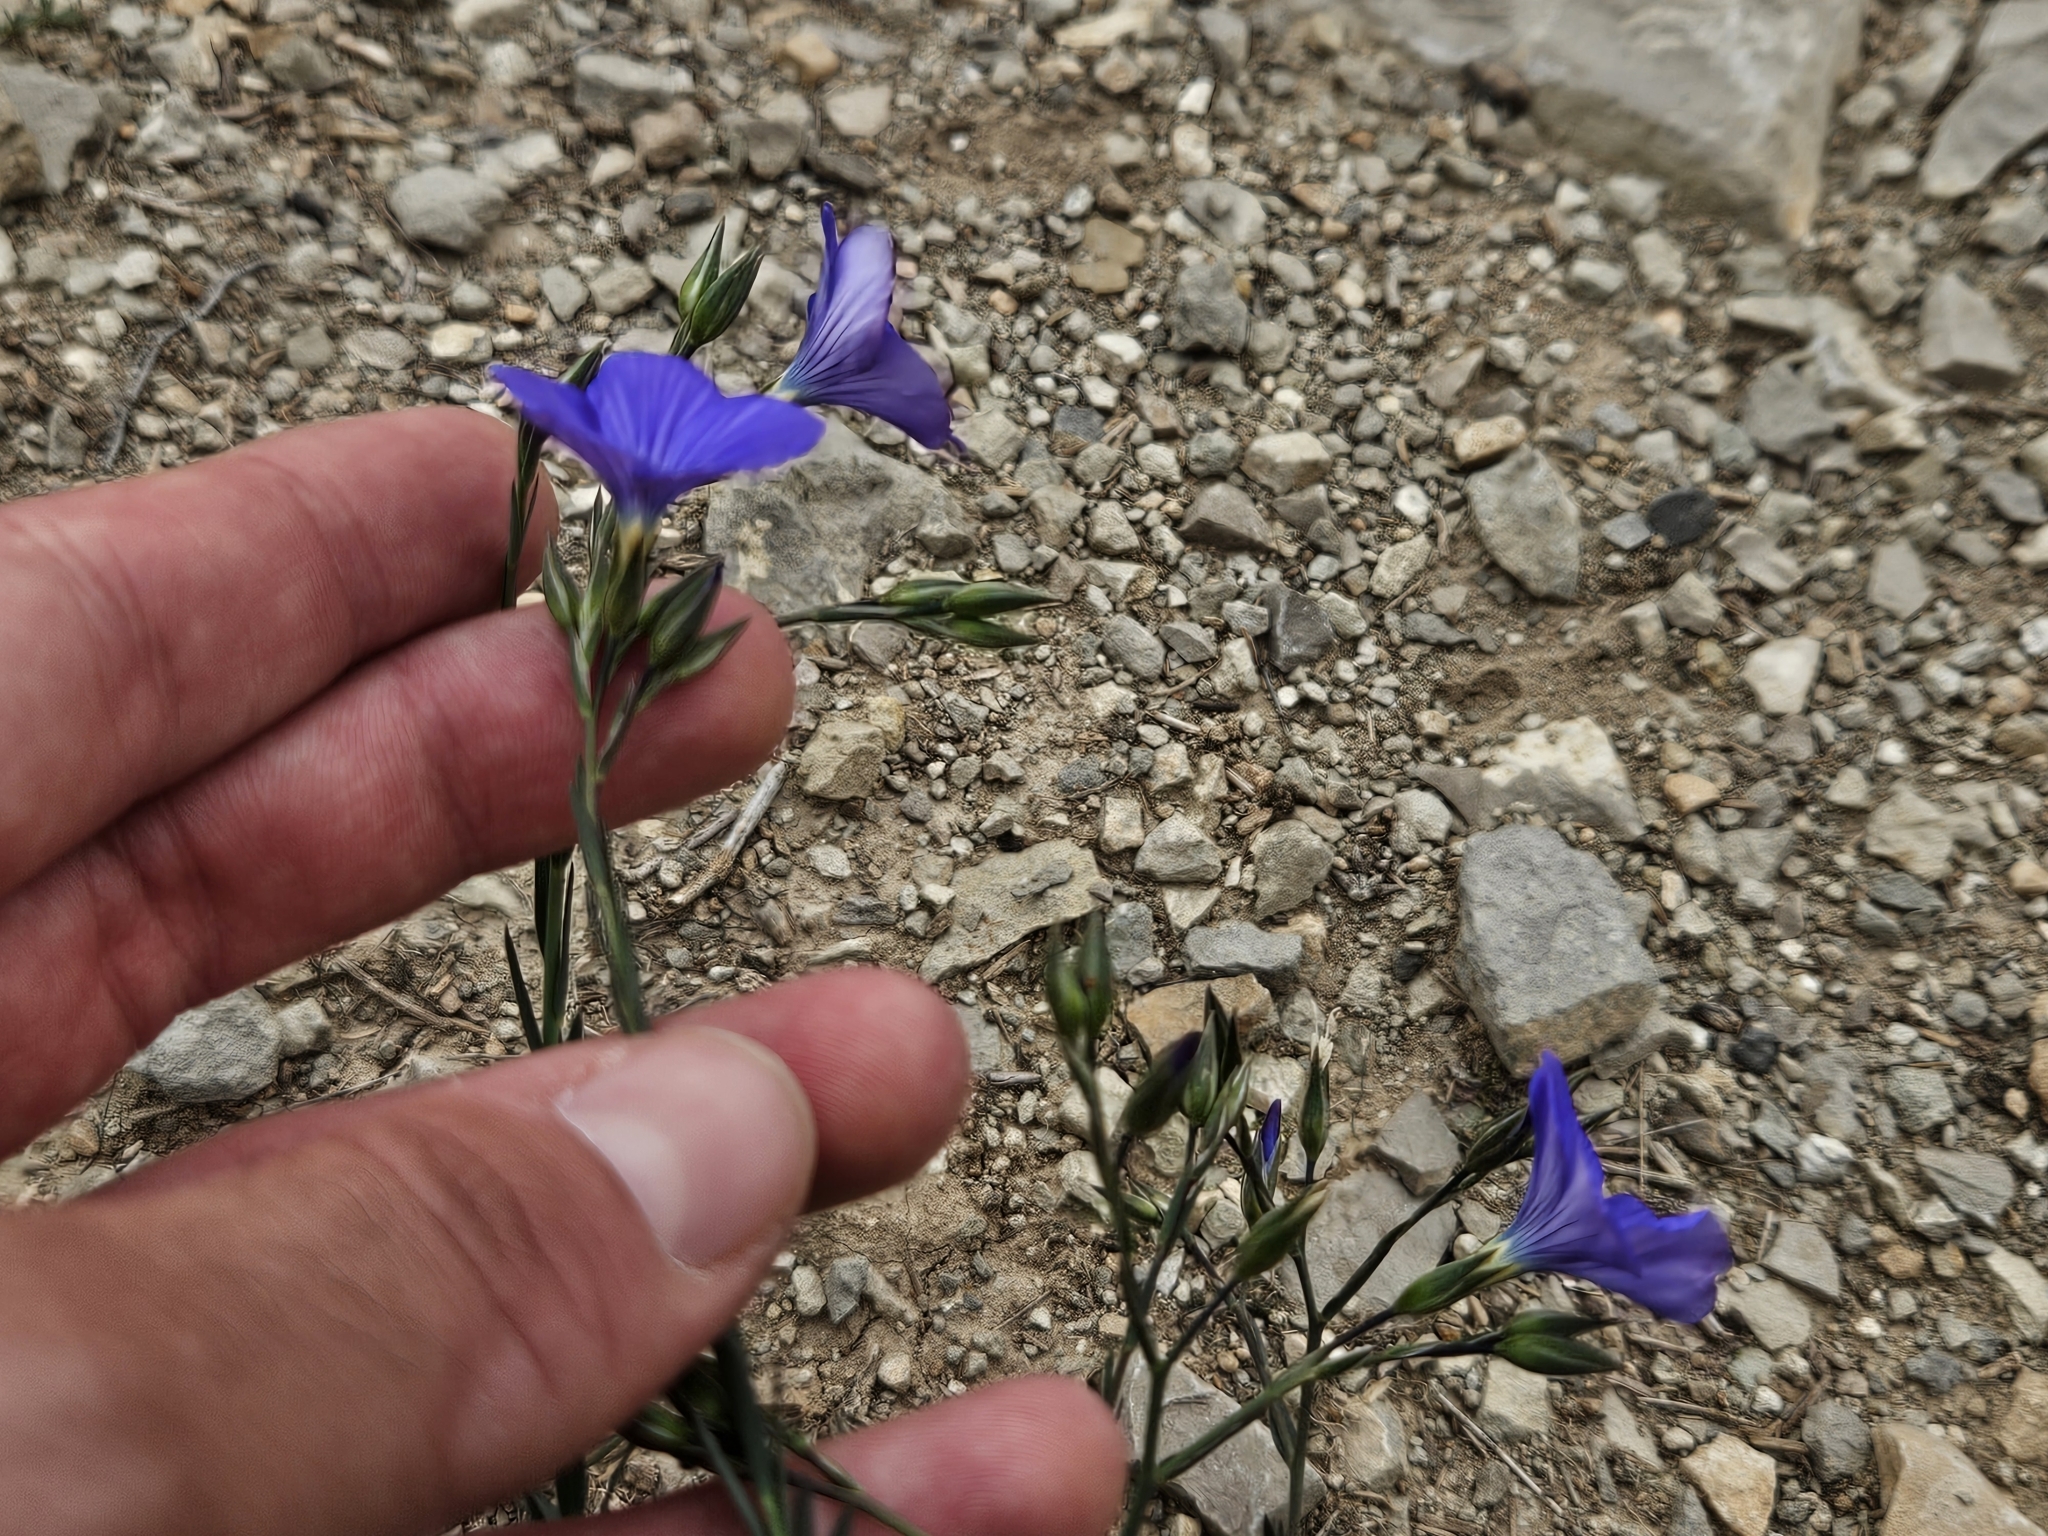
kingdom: Plantae
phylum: Tracheophyta
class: Magnoliopsida
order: Malpighiales
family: Linaceae
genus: Linum
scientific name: Linum narbonense
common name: Flax
